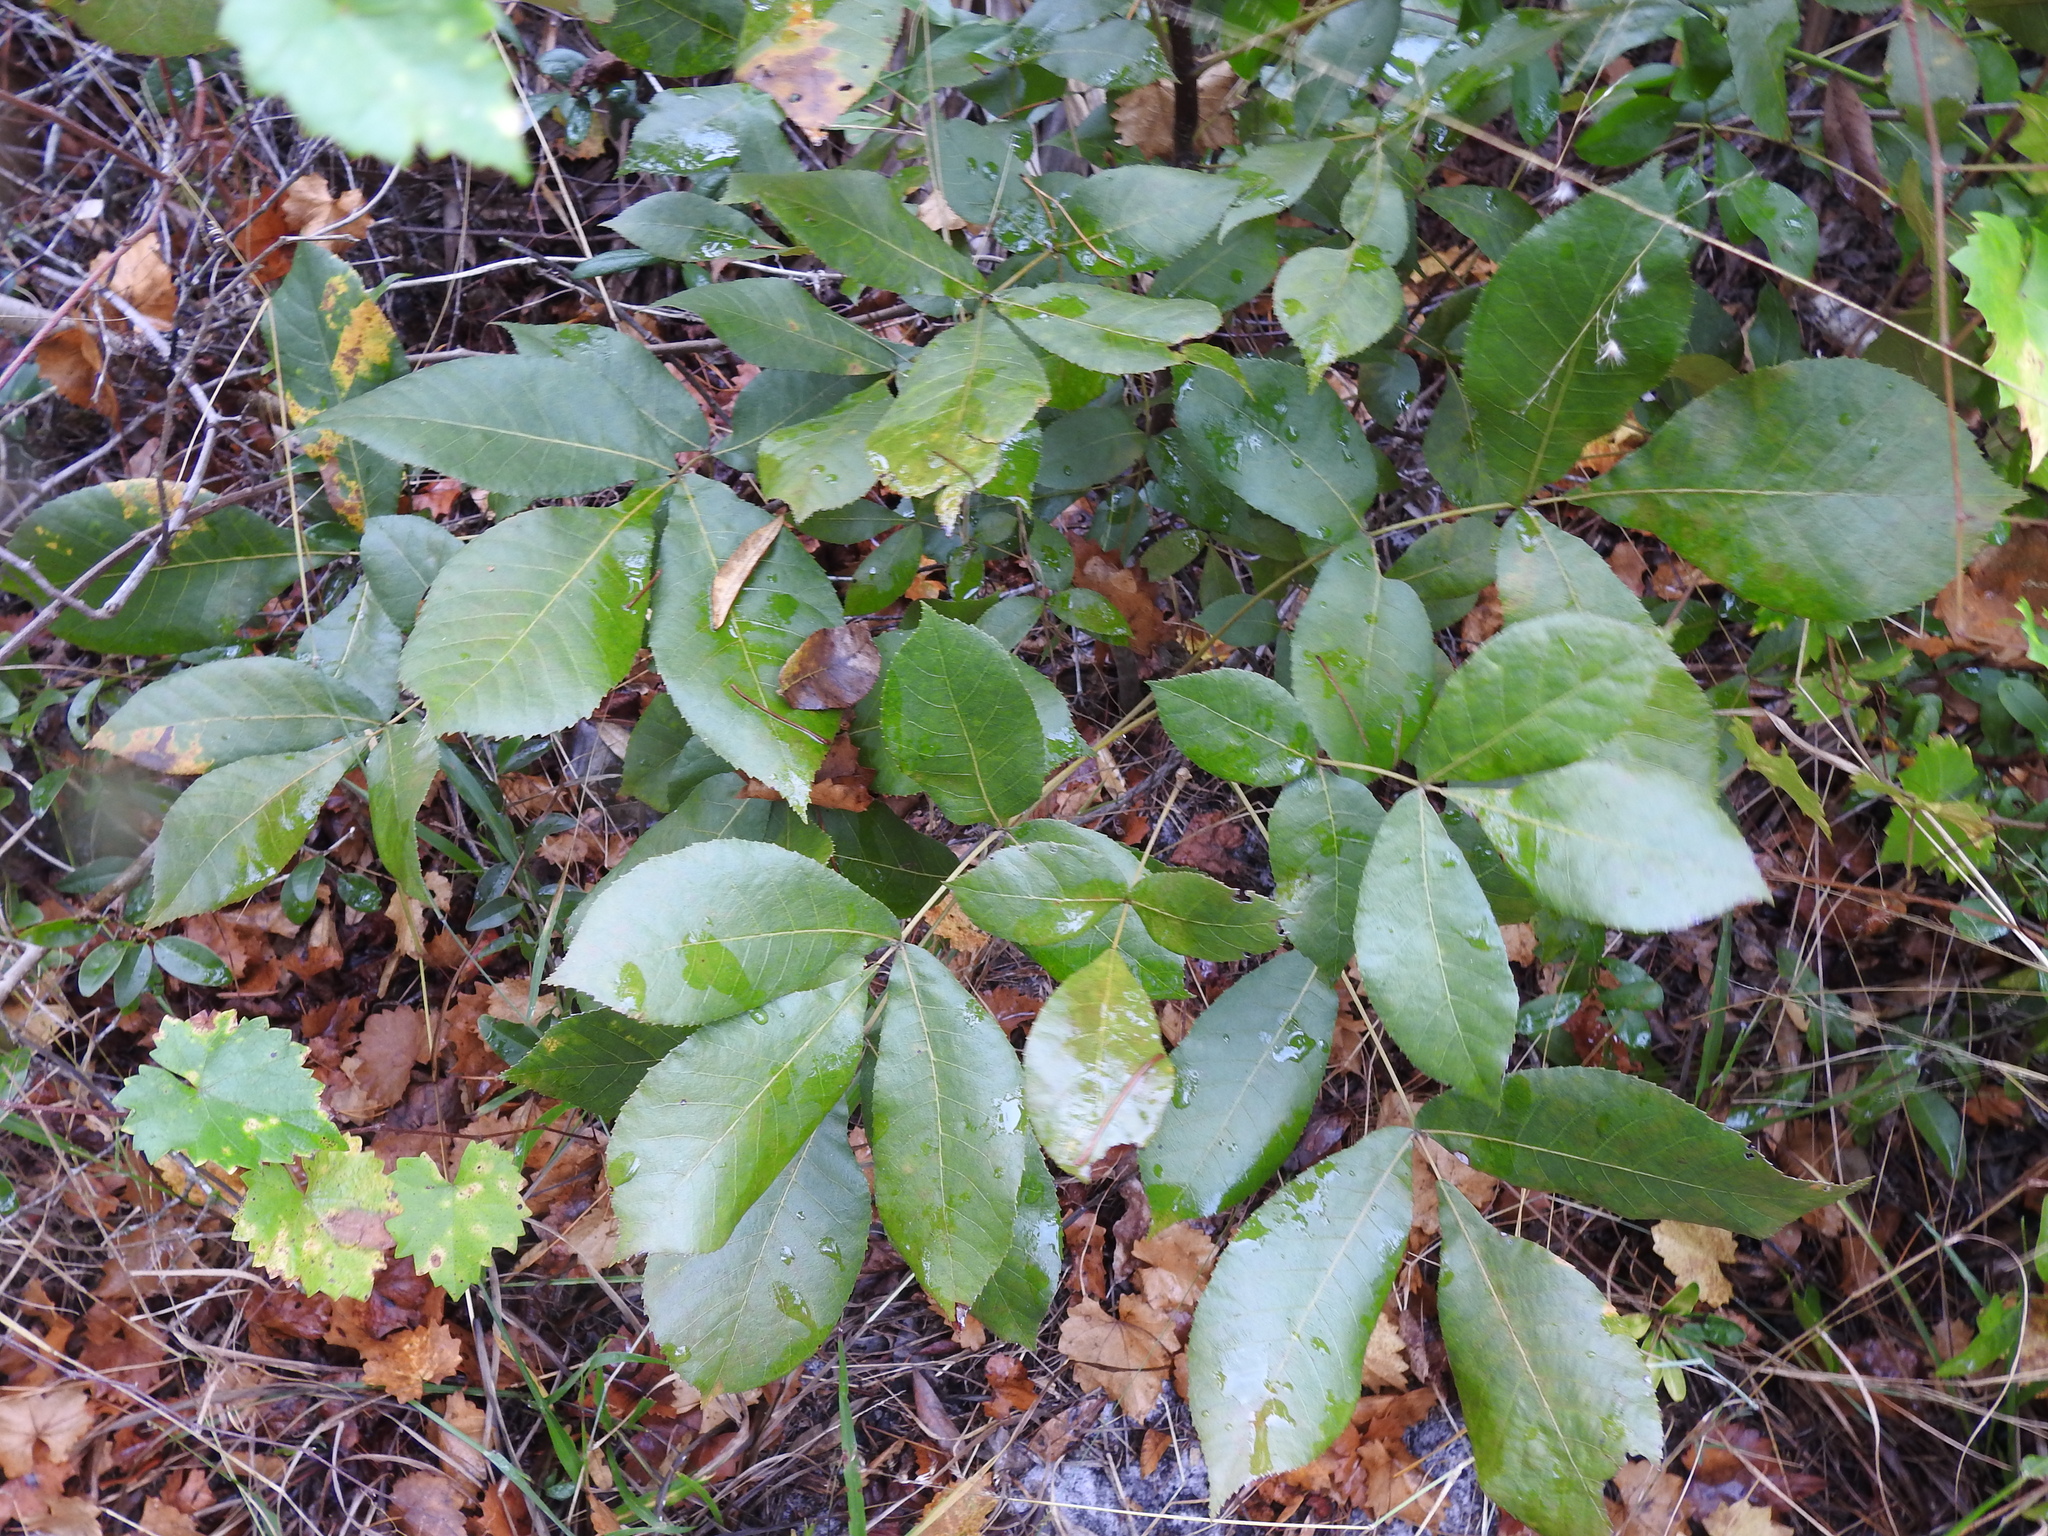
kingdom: Plantae
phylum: Tracheophyta
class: Magnoliopsida
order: Fagales
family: Juglandaceae
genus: Carya
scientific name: Carya floridana
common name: Scrub hickory
